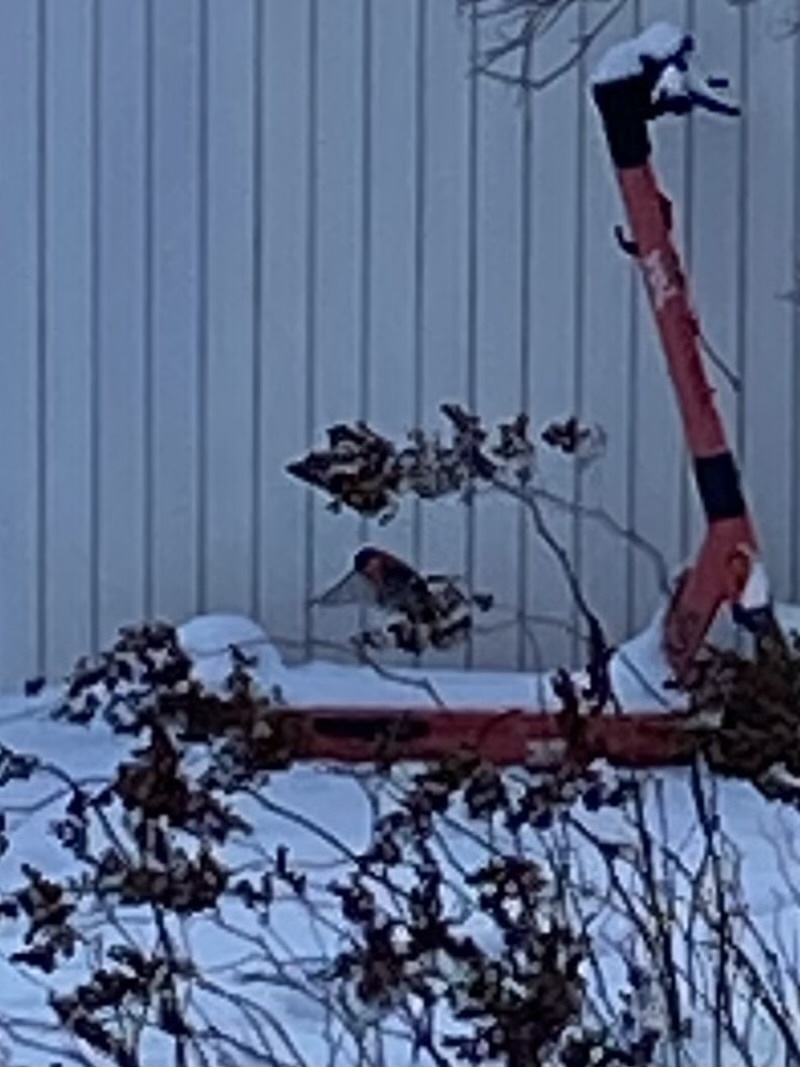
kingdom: Animalia
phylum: Chordata
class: Aves
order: Passeriformes
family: Fringillidae
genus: Pyrrhula
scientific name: Pyrrhula pyrrhula
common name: Eurasian bullfinch
